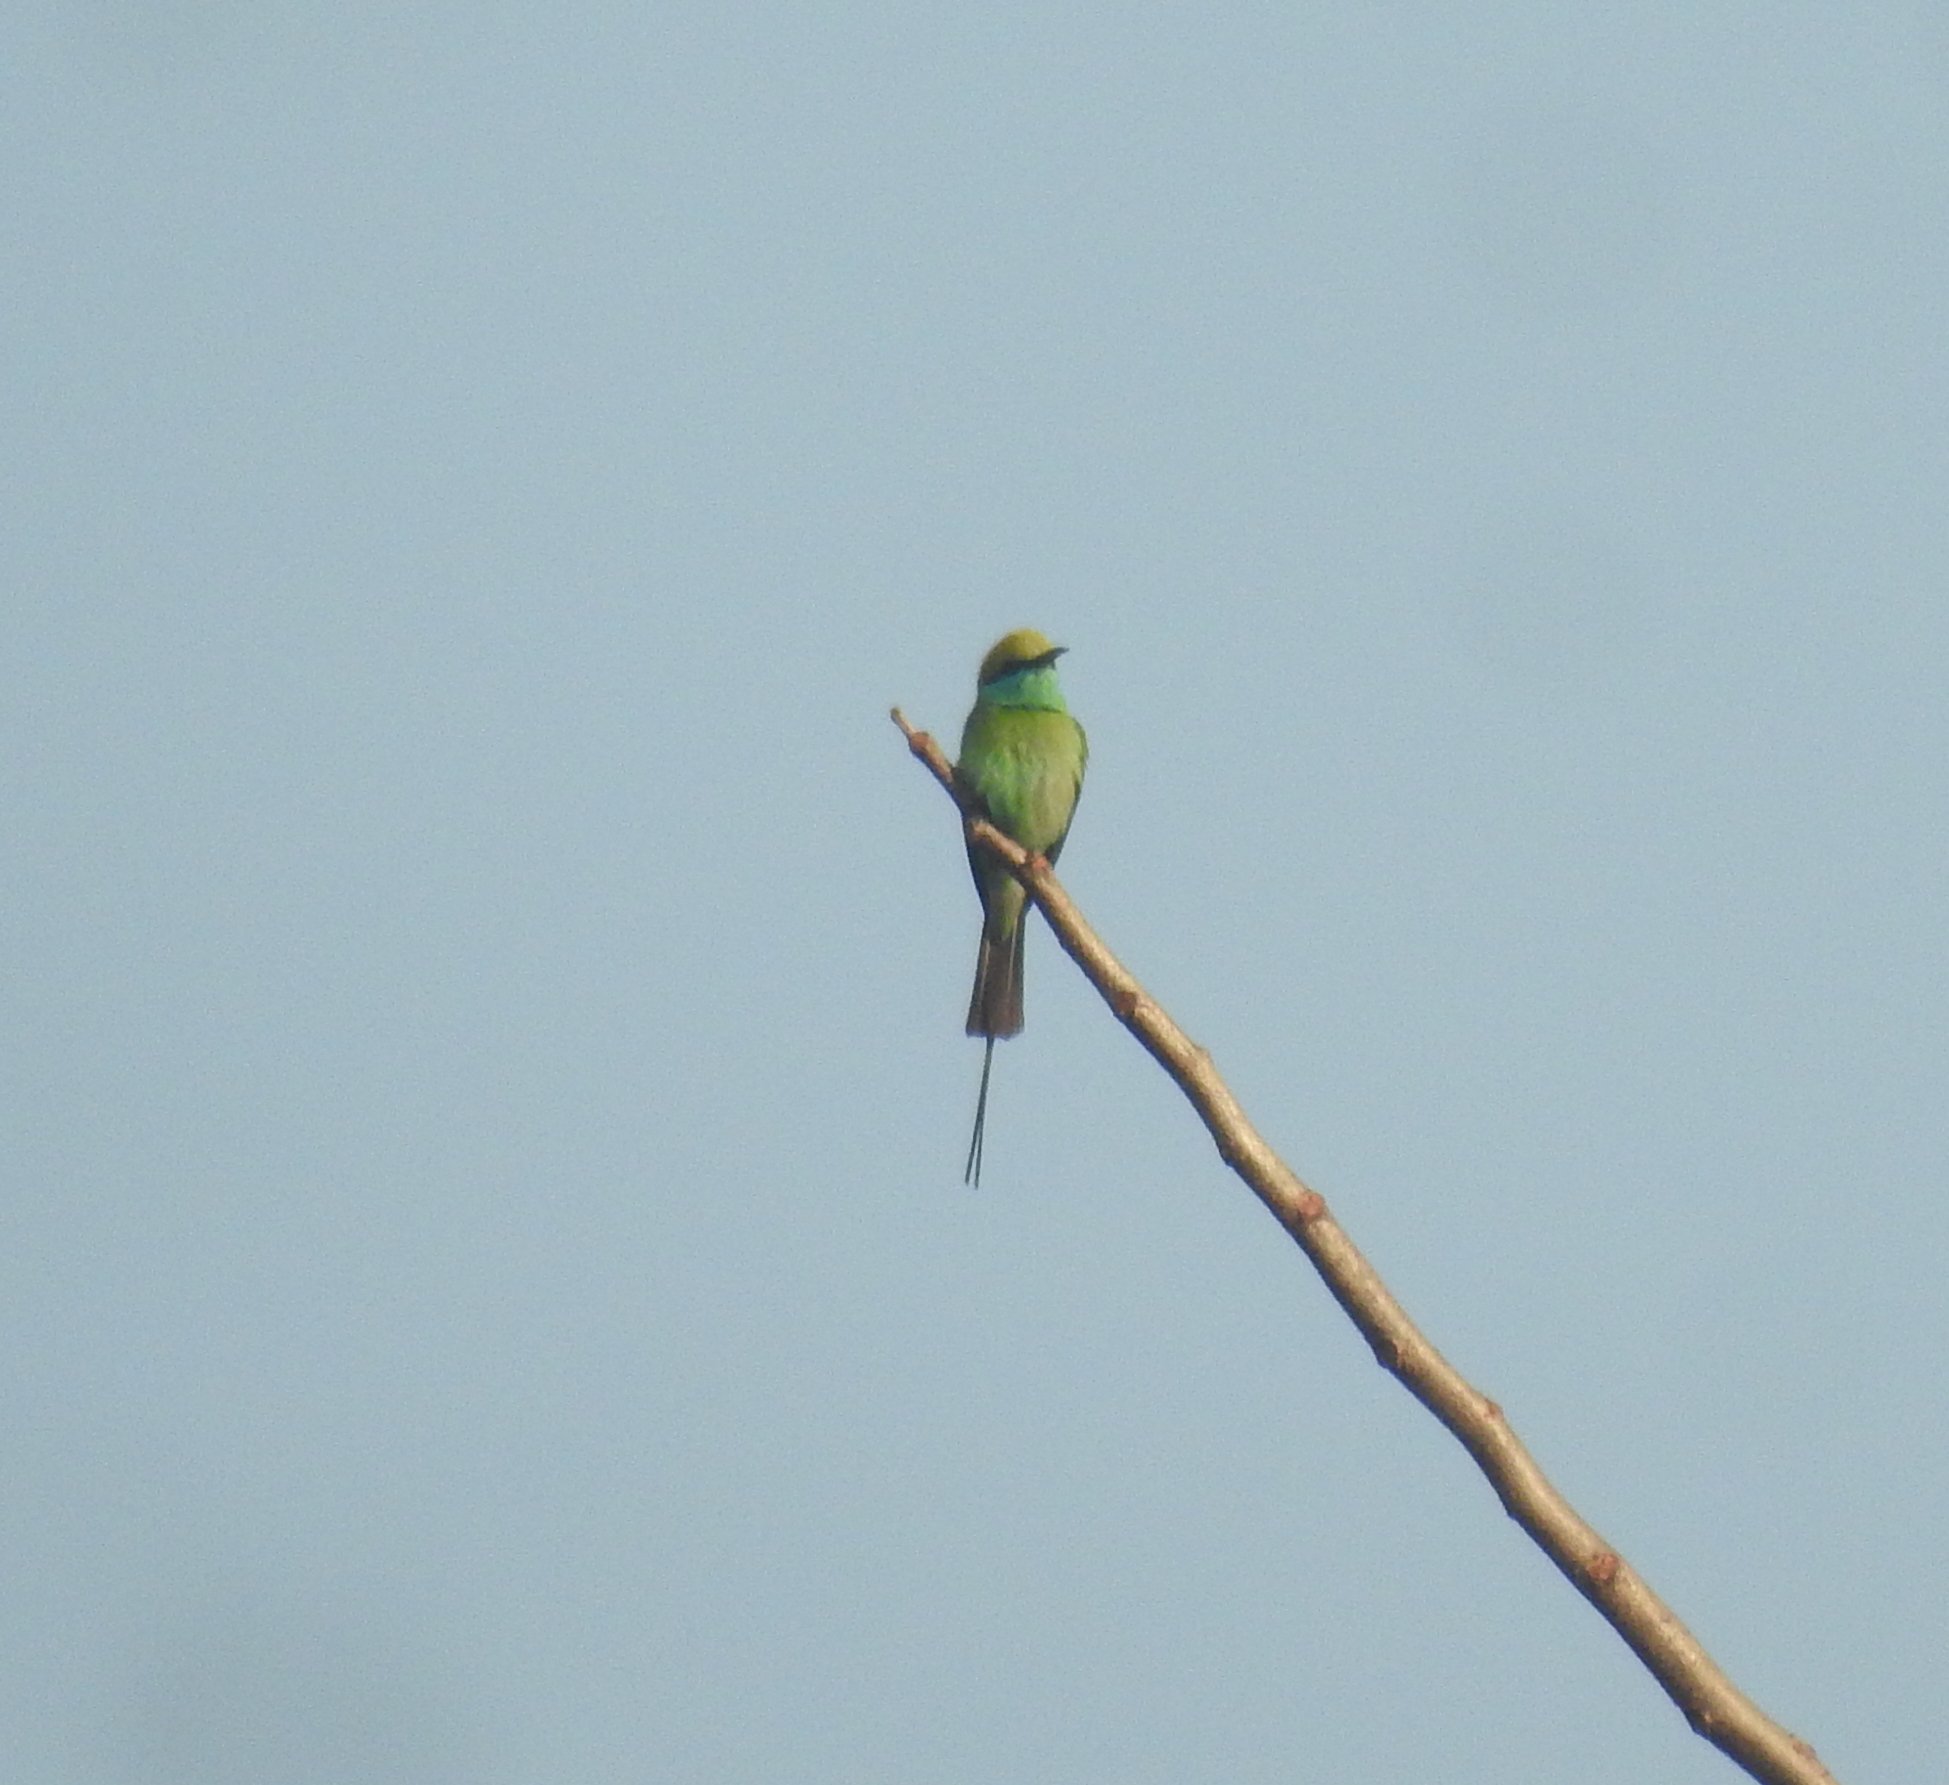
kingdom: Animalia
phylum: Chordata
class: Aves
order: Coraciiformes
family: Meropidae
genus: Merops
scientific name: Merops orientalis
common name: Green bee-eater
